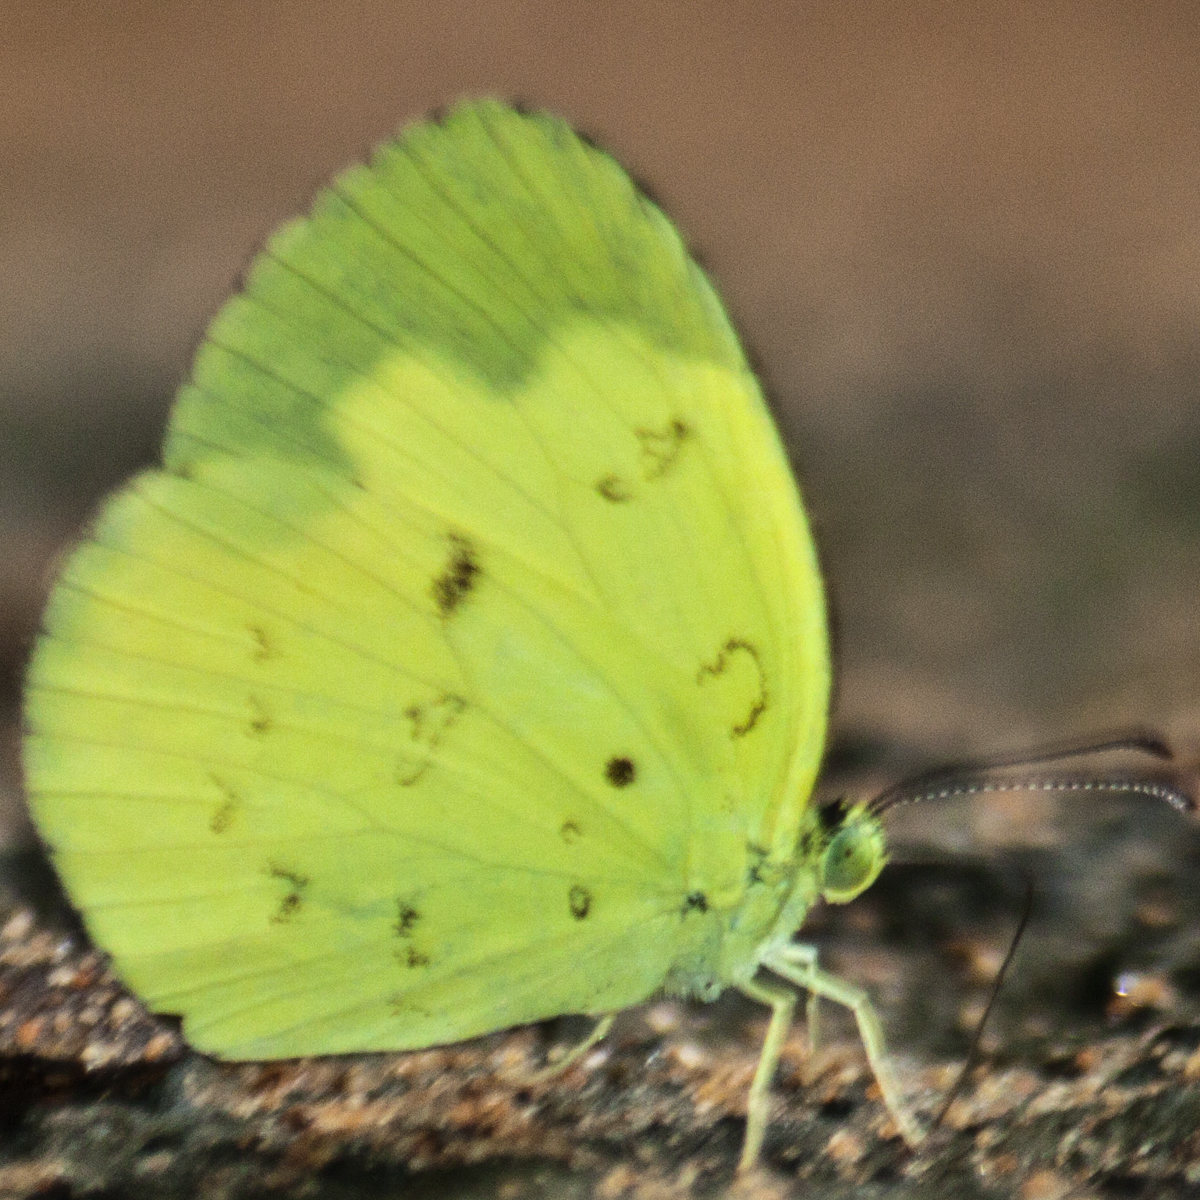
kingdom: Animalia
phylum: Arthropoda
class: Insecta
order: Lepidoptera
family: Pieridae
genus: Eurema
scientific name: Eurema ada
